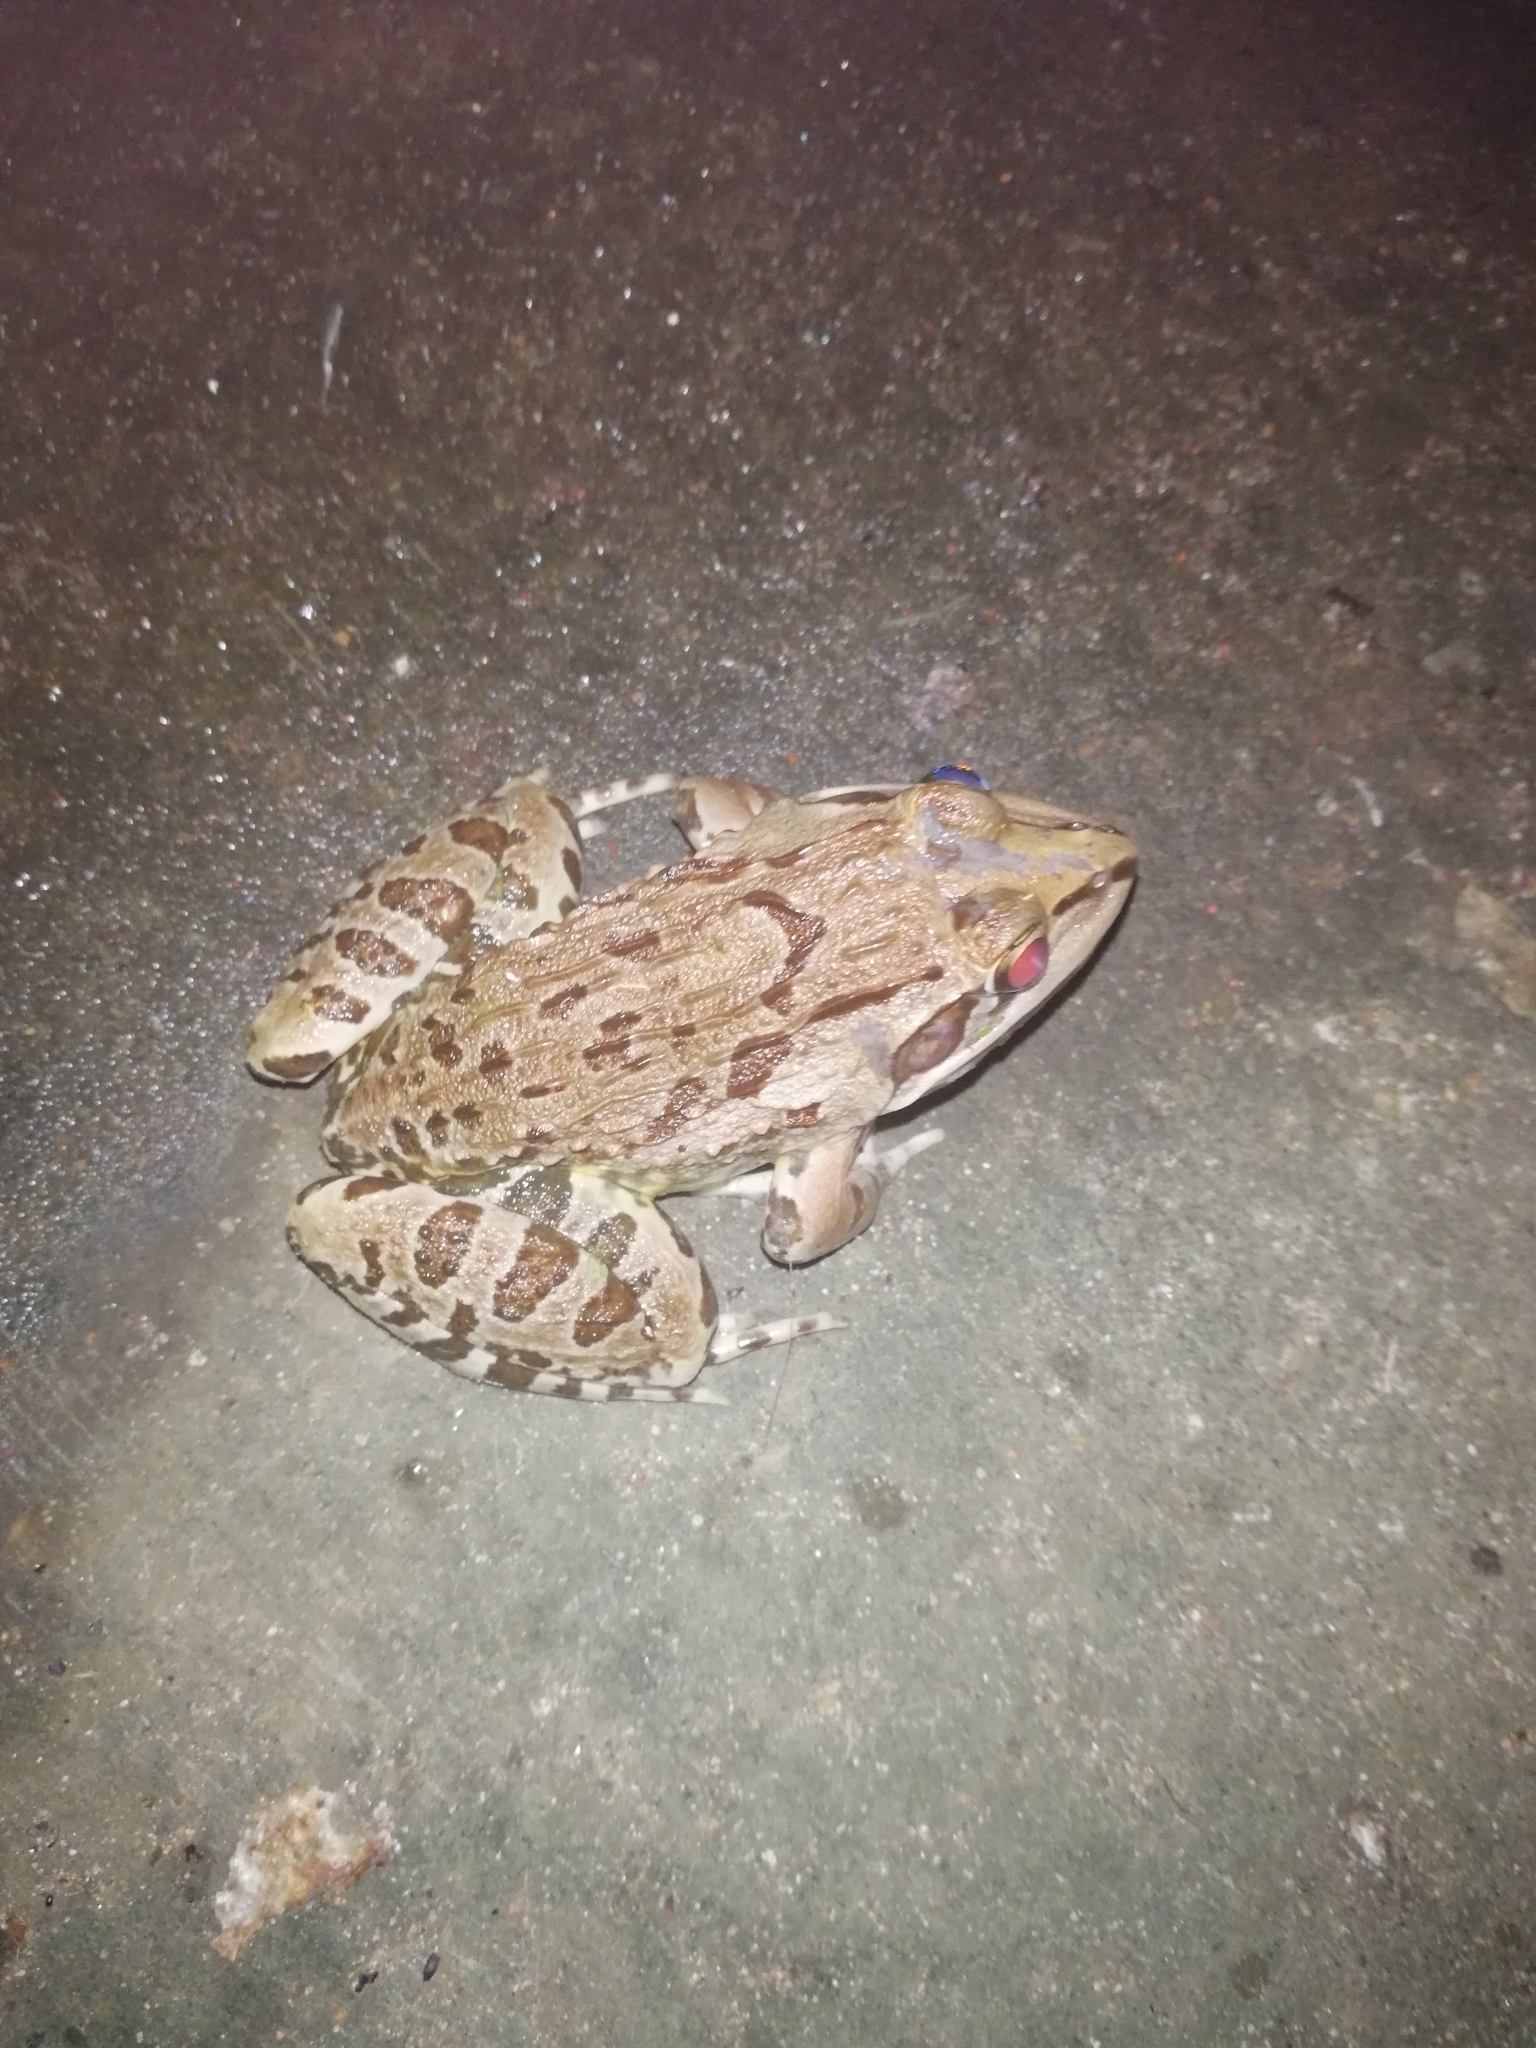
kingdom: Animalia
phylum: Chordata
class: Amphibia
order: Anura
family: Dicroglossidae
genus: Hoplobatrachus
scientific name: Hoplobatrachus tigerinus
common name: Indian bullfrog
